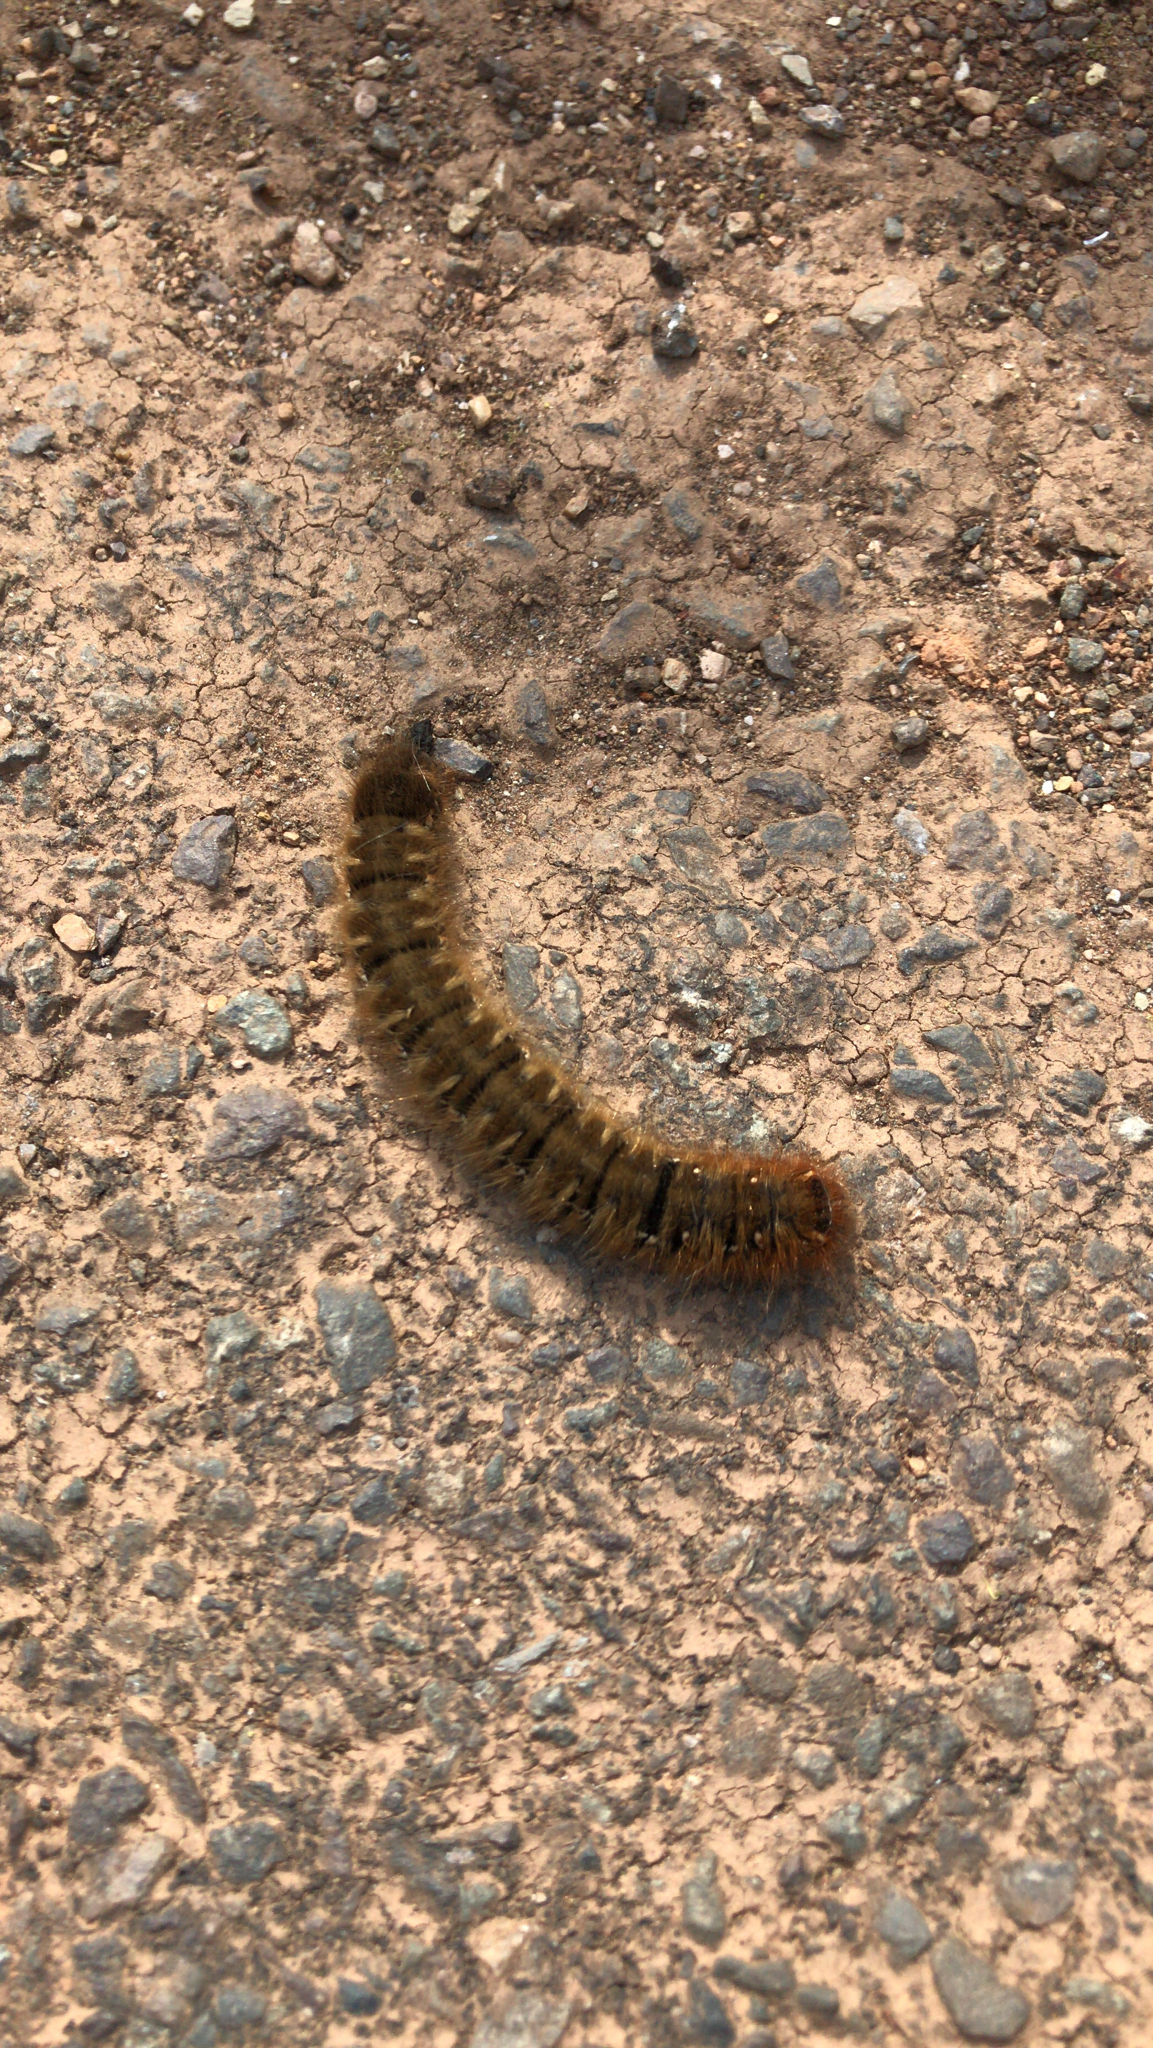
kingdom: Animalia
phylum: Arthropoda
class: Insecta
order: Lepidoptera
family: Lasiocampidae
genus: Lasiocampa
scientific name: Lasiocampa quercus
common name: Oak eggar
